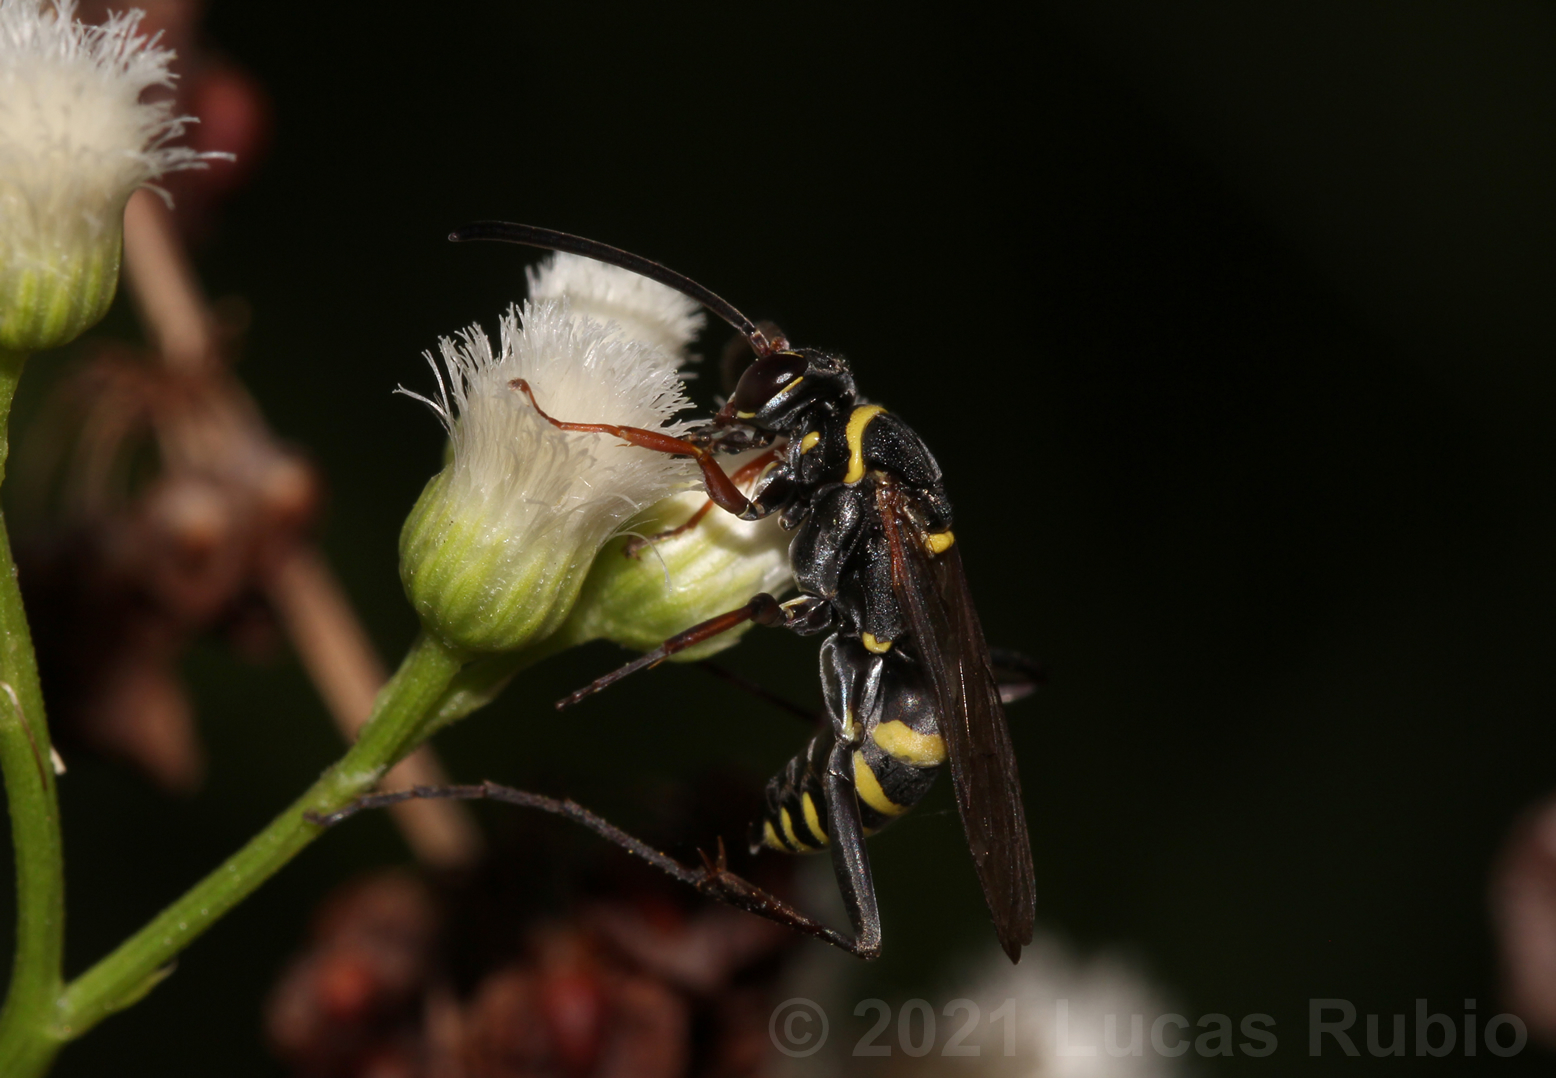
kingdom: Animalia
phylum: Arthropoda
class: Insecta
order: Hymenoptera
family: Pompilidae
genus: Hemiceropales
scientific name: Hemiceropales taschenbergi
